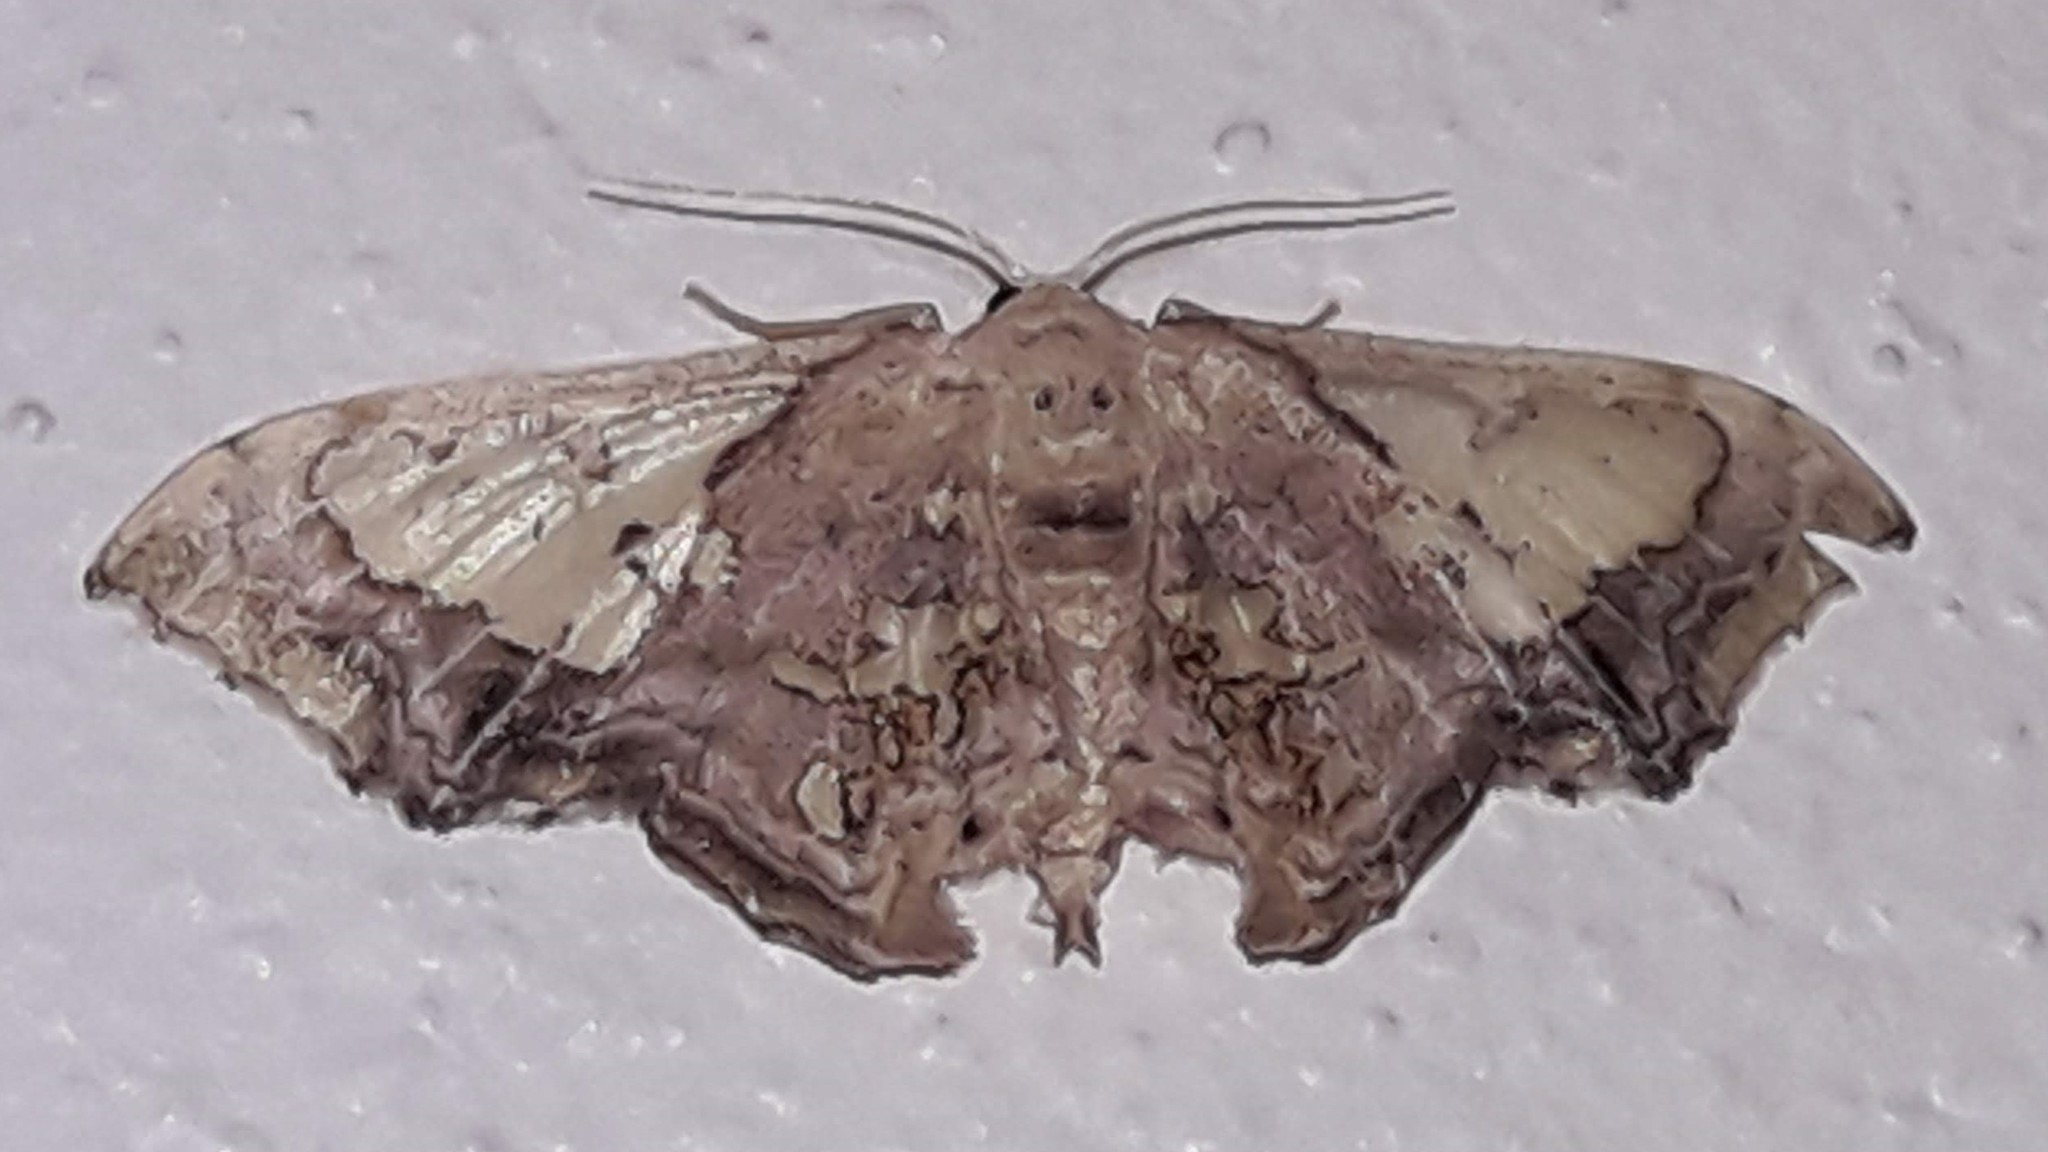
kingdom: Animalia
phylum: Arthropoda
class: Insecta
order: Lepidoptera
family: Geometridae
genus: Pseudasellodes
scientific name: Pseudasellodes fenestraria
